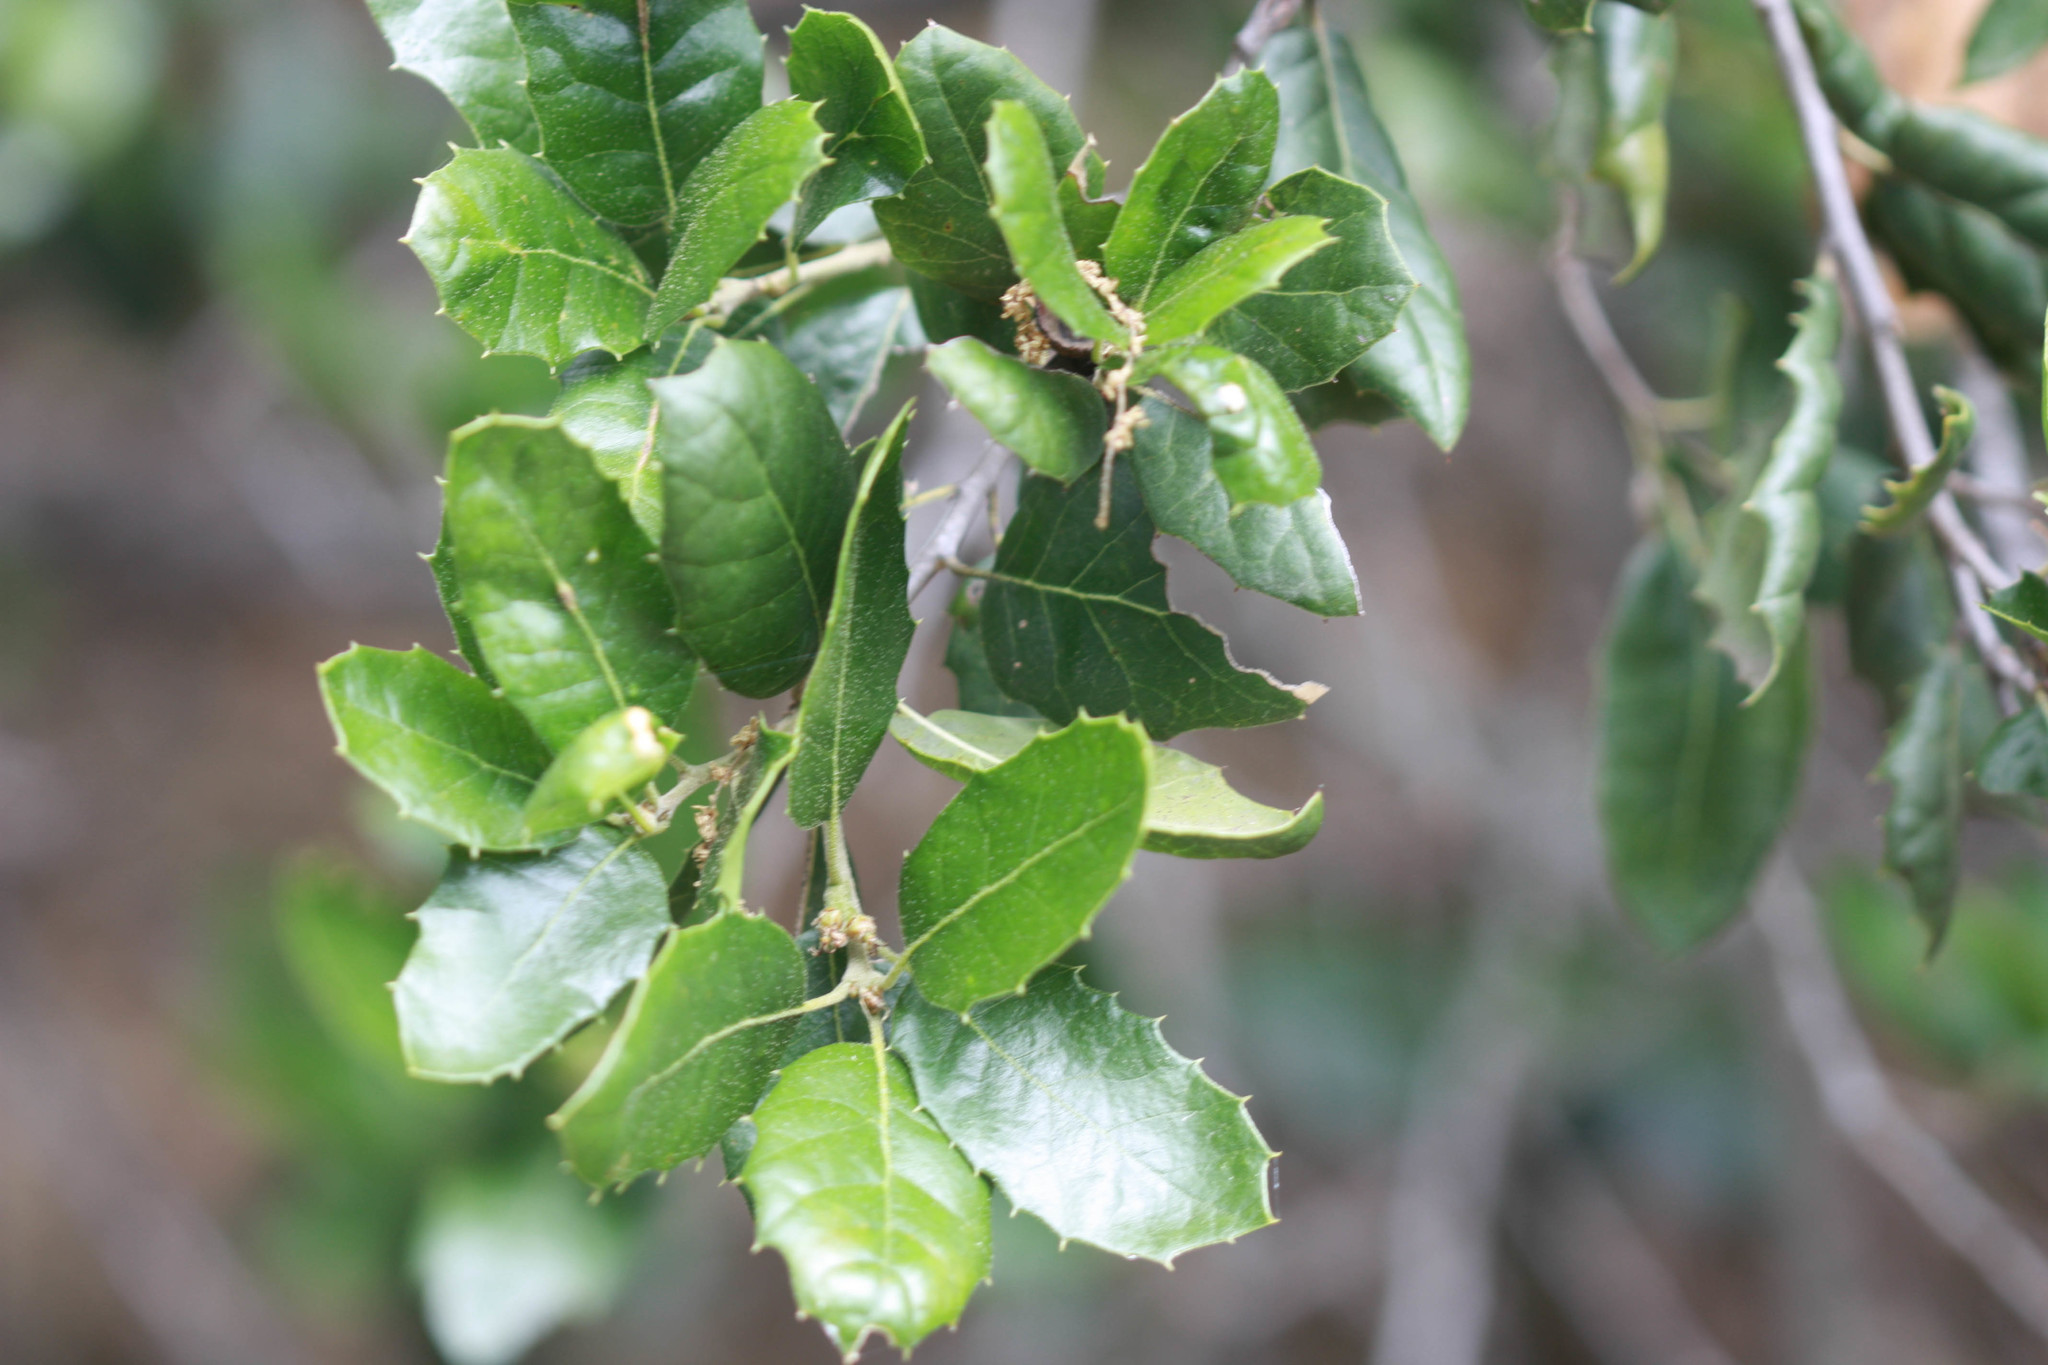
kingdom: Plantae
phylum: Tracheophyta
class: Magnoliopsida
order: Fagales
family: Fagaceae
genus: Quercus
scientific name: Quercus agrifolia
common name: California live oak
